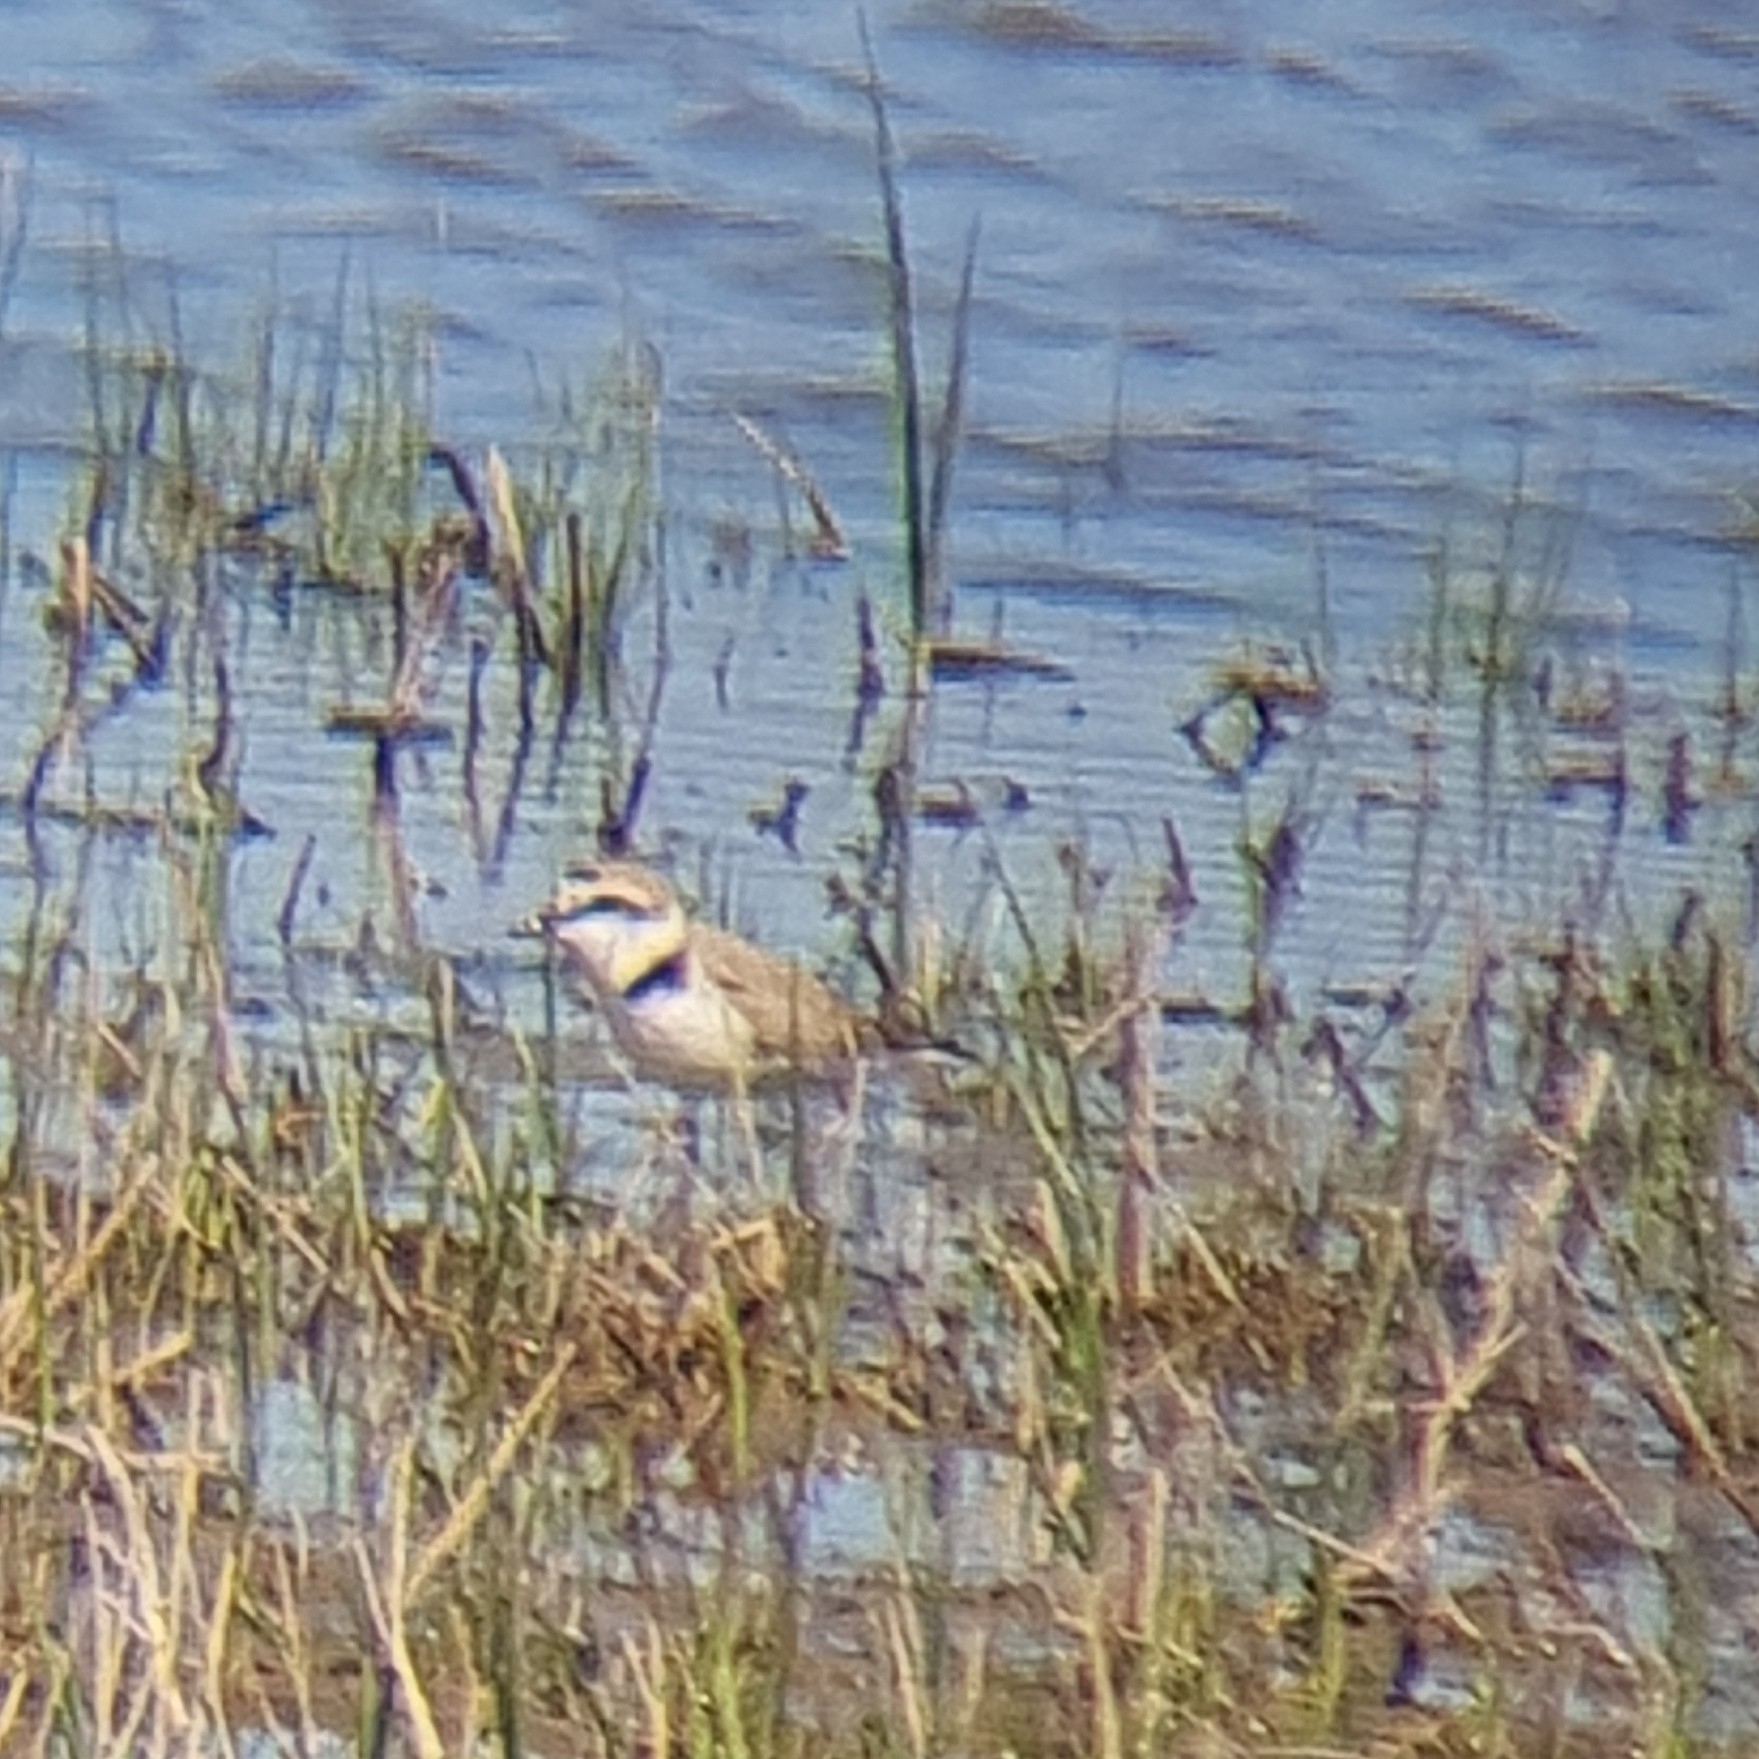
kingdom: Animalia
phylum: Chordata
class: Aves
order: Charadriiformes
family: Charadriidae
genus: Charadrius
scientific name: Charadrius alexandrinus
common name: Kentish plover
